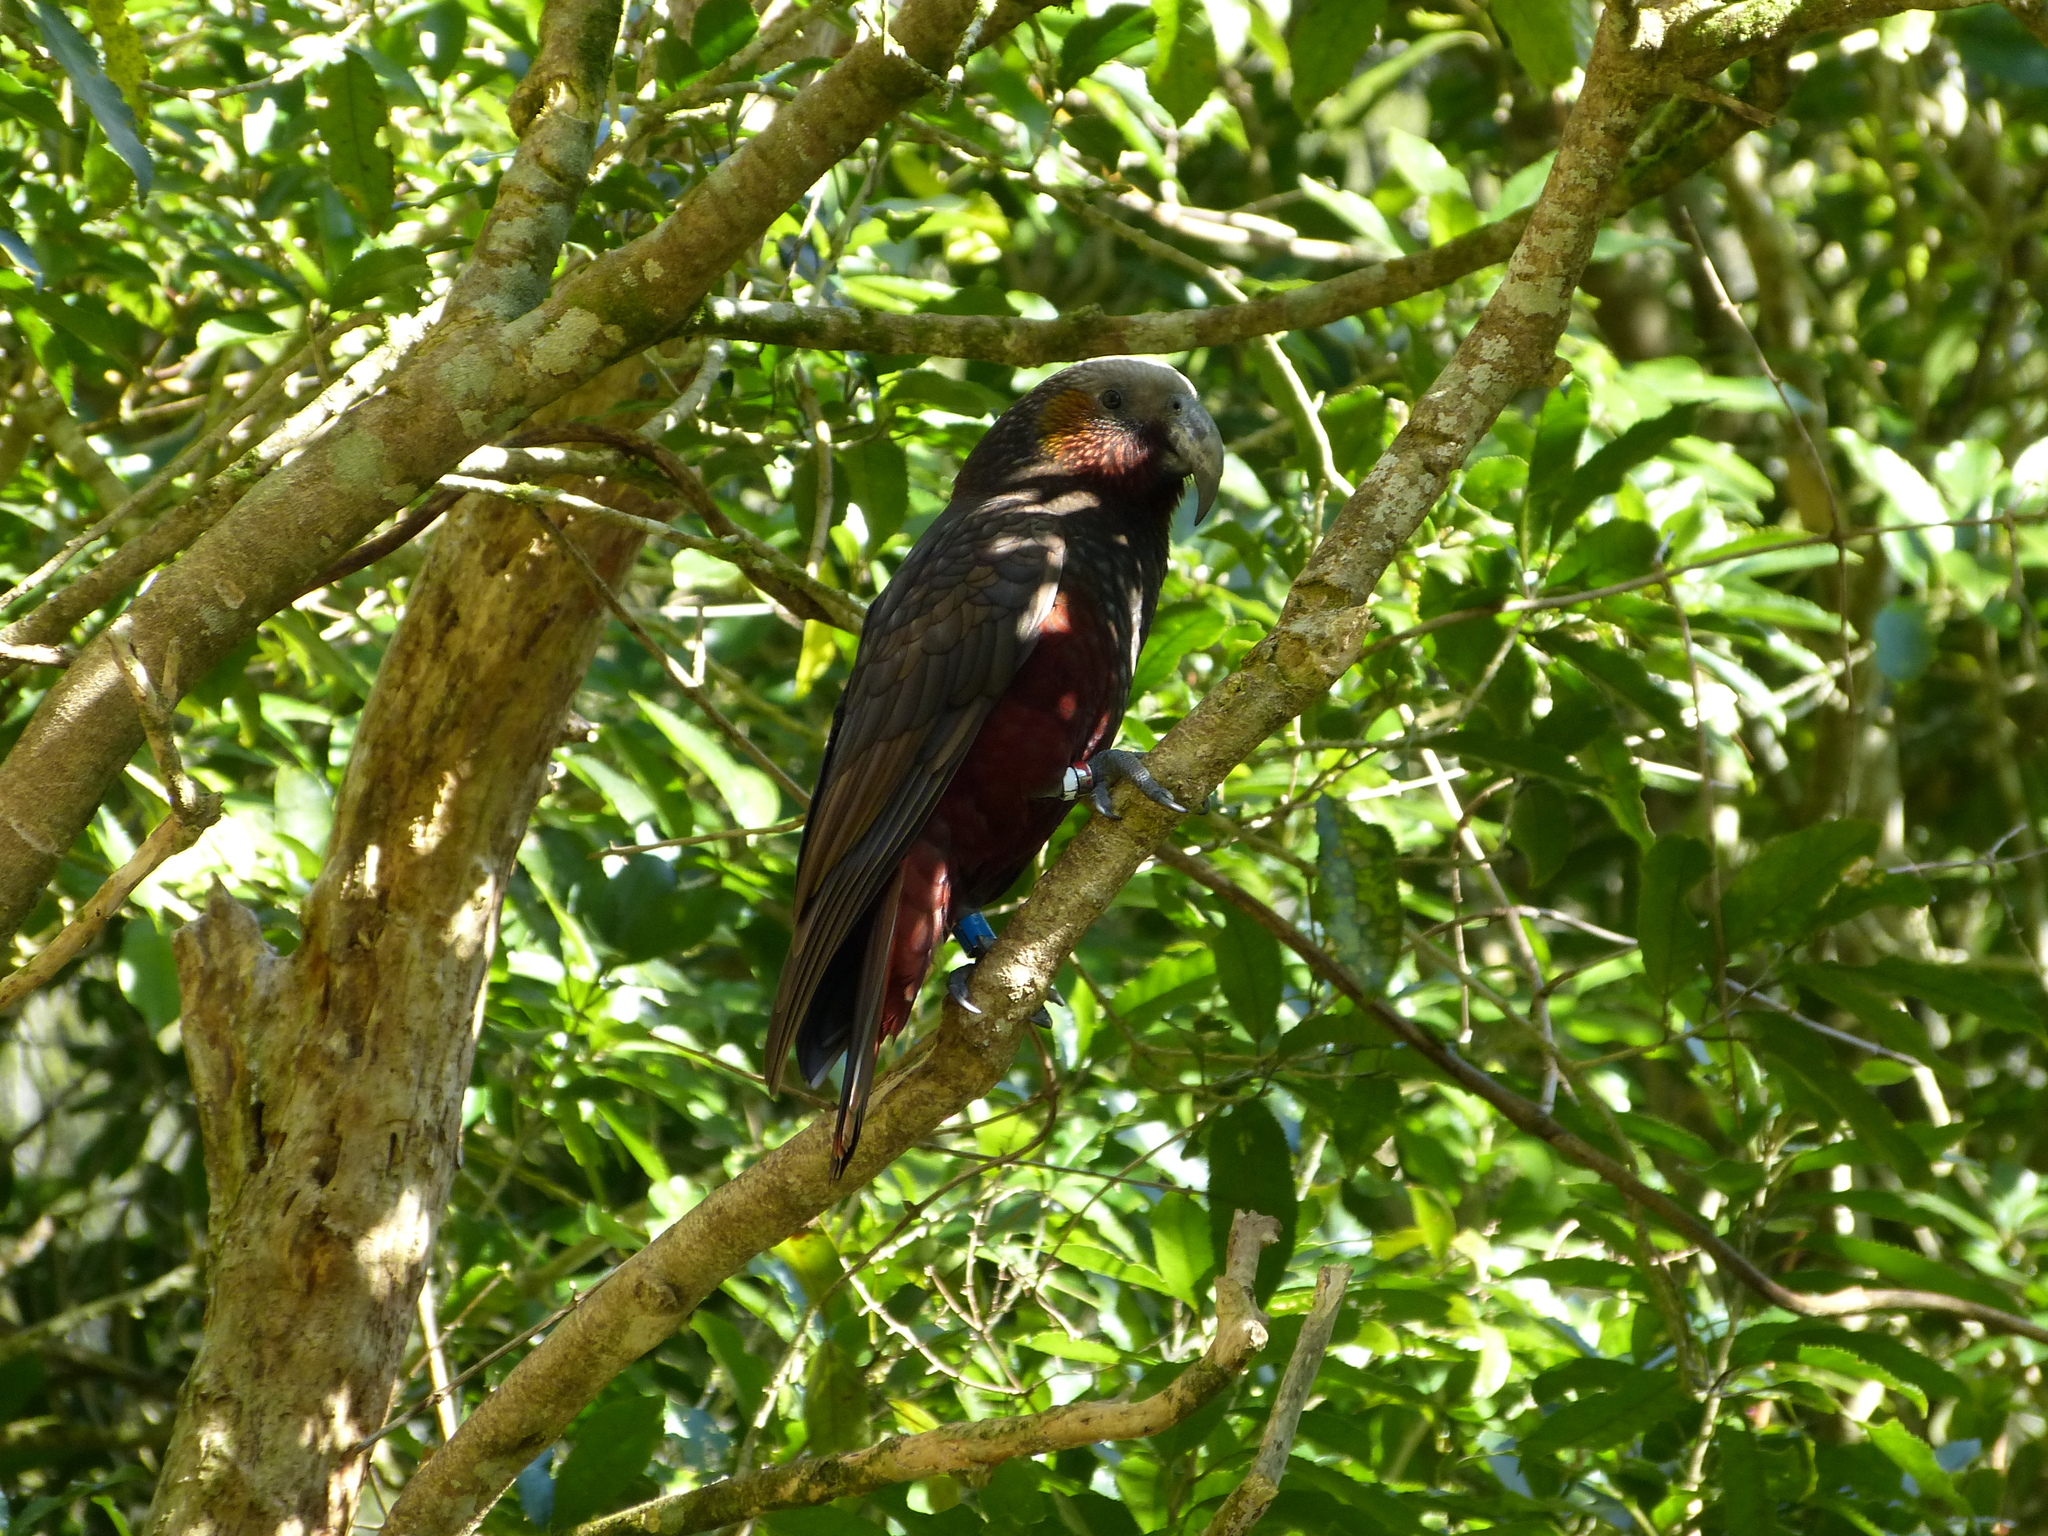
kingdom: Animalia
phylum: Chordata
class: Aves
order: Psittaciformes
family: Psittacidae
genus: Nestor
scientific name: Nestor meridionalis
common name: New zealand kaka
